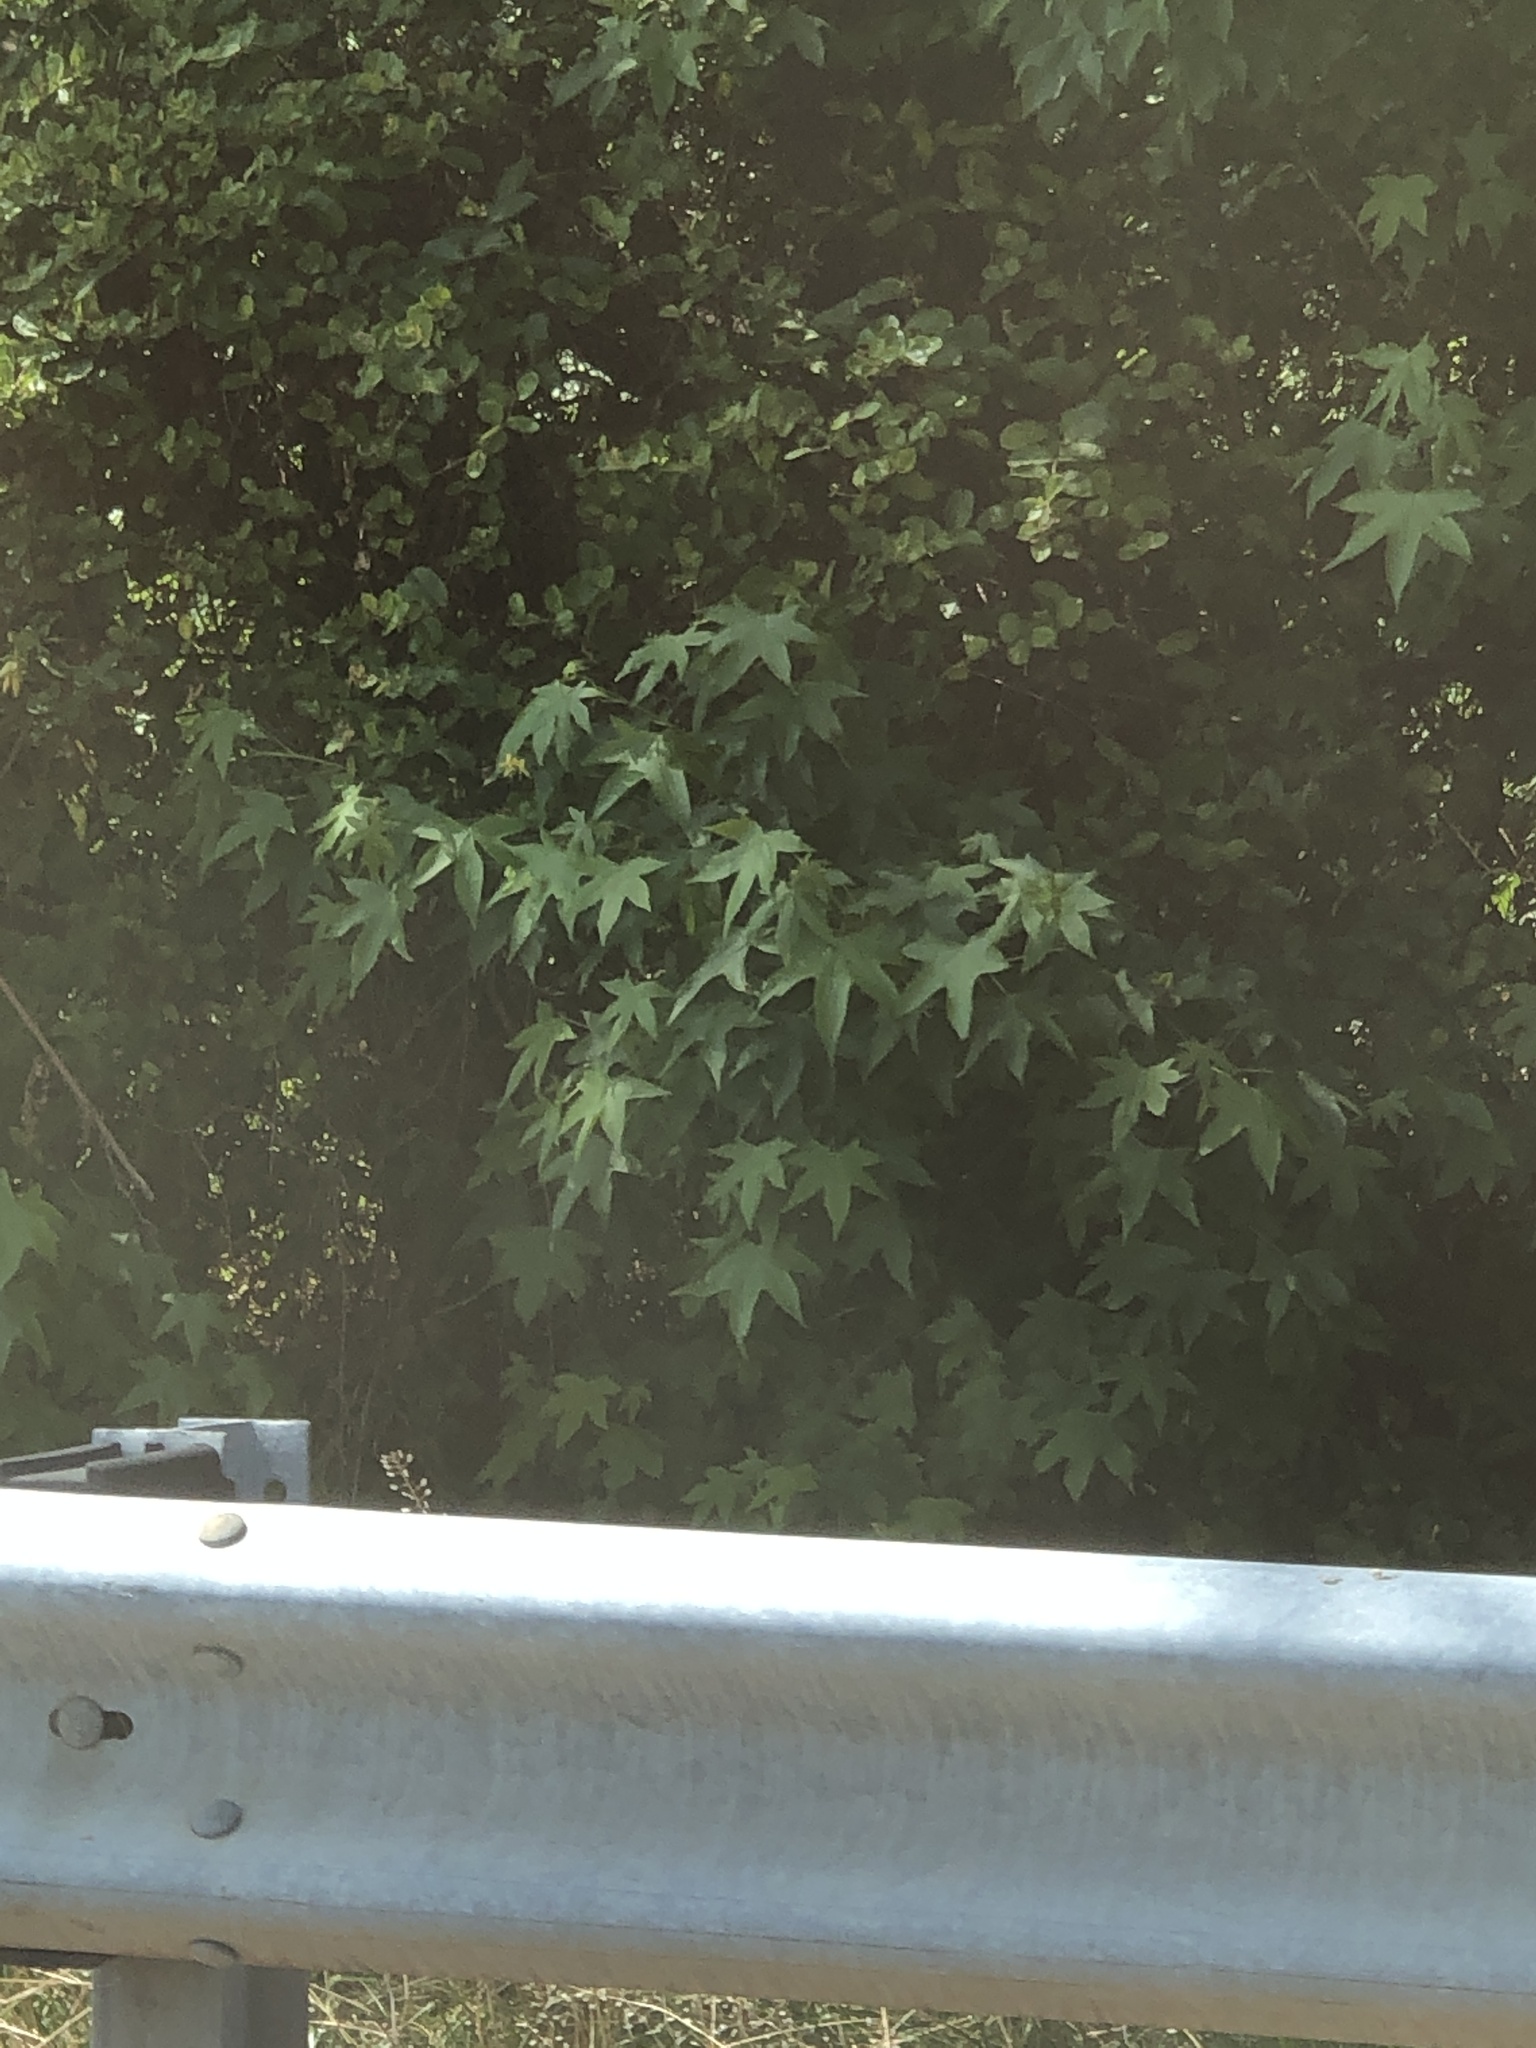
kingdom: Plantae
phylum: Tracheophyta
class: Magnoliopsida
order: Saxifragales
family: Altingiaceae
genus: Liquidambar
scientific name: Liquidambar styraciflua
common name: Sweet gum
